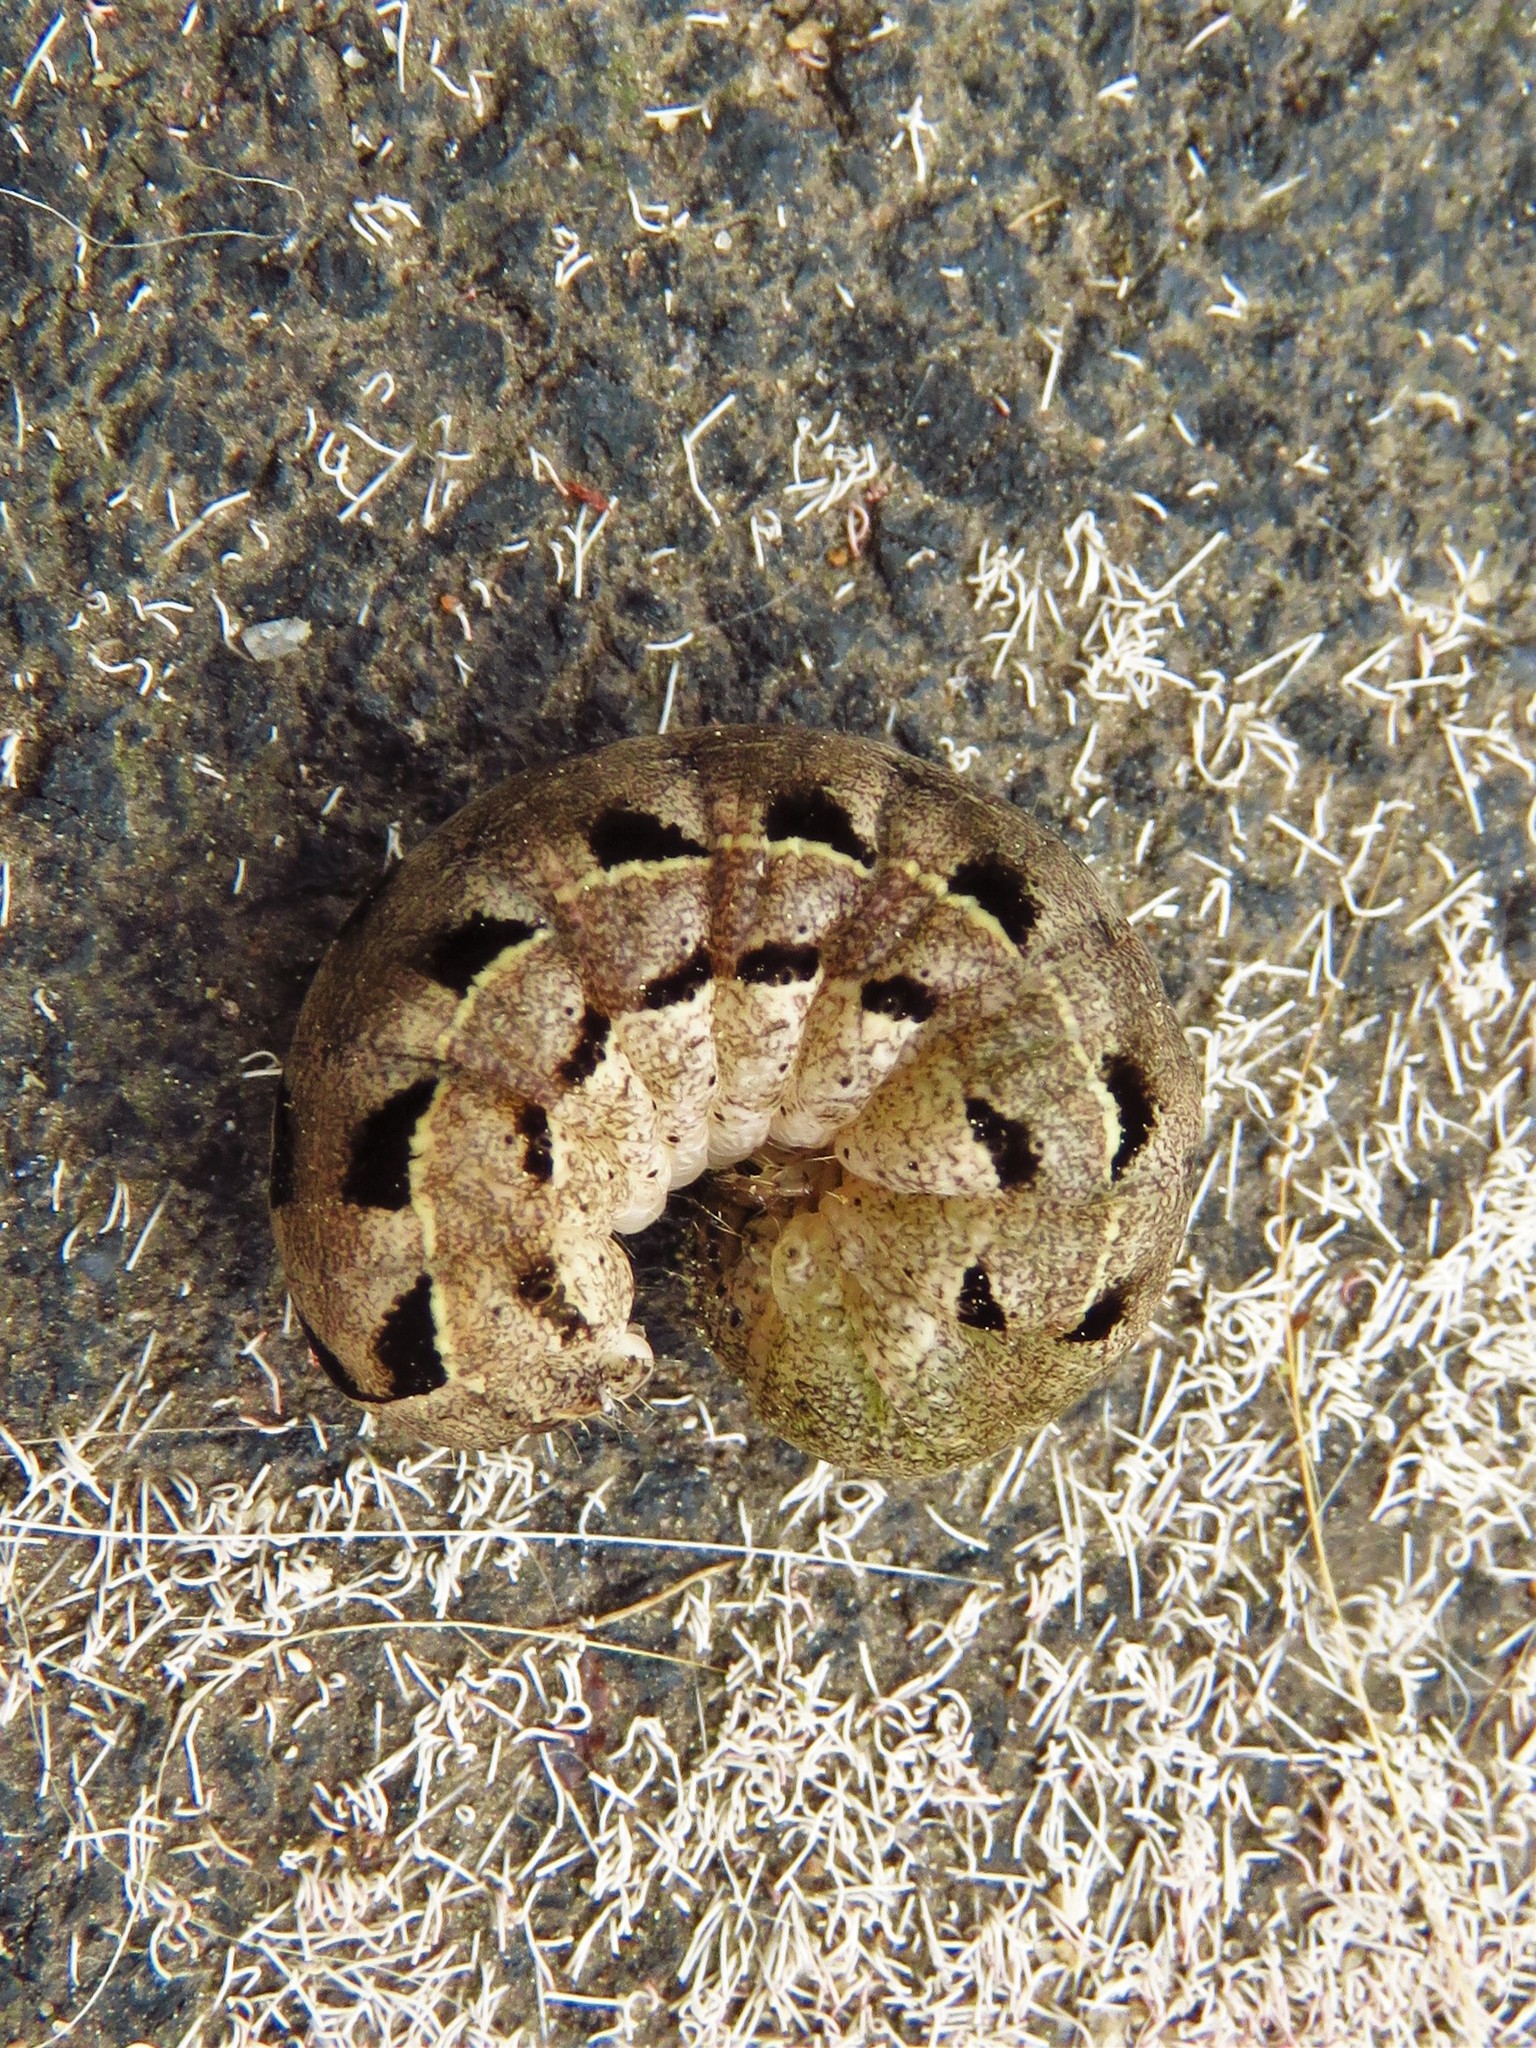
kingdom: Animalia
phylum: Arthropoda
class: Insecta
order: Lepidoptera
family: Noctuidae
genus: Agnorisma
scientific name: Agnorisma badinodis
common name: Pale-banded dart
